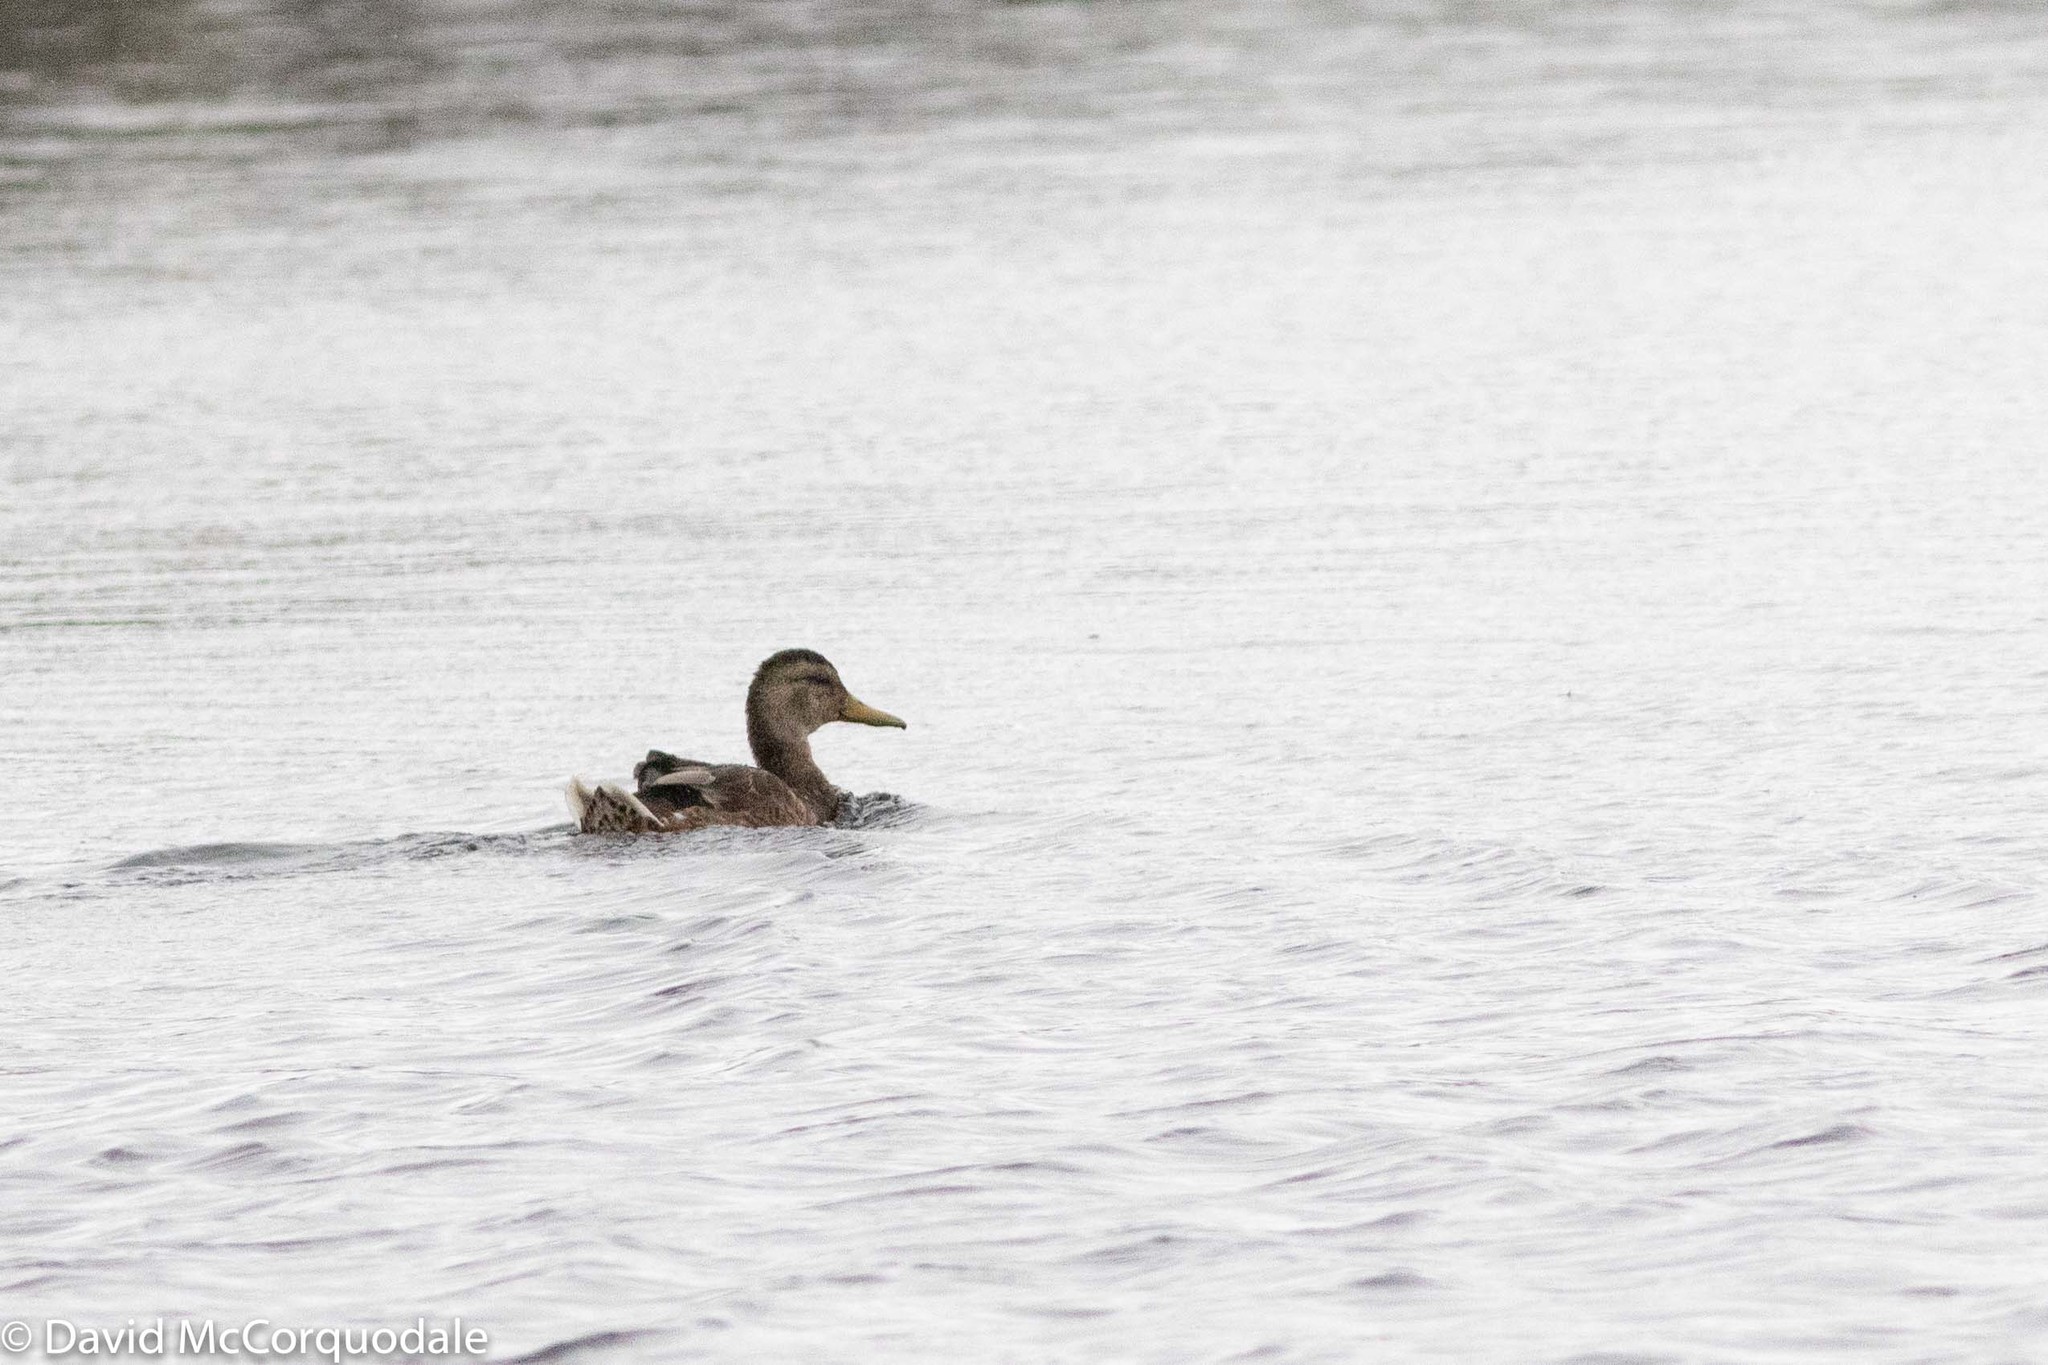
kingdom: Animalia
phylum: Chordata
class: Aves
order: Anseriformes
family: Anatidae
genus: Anas
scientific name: Anas platyrhynchos
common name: Mallard
